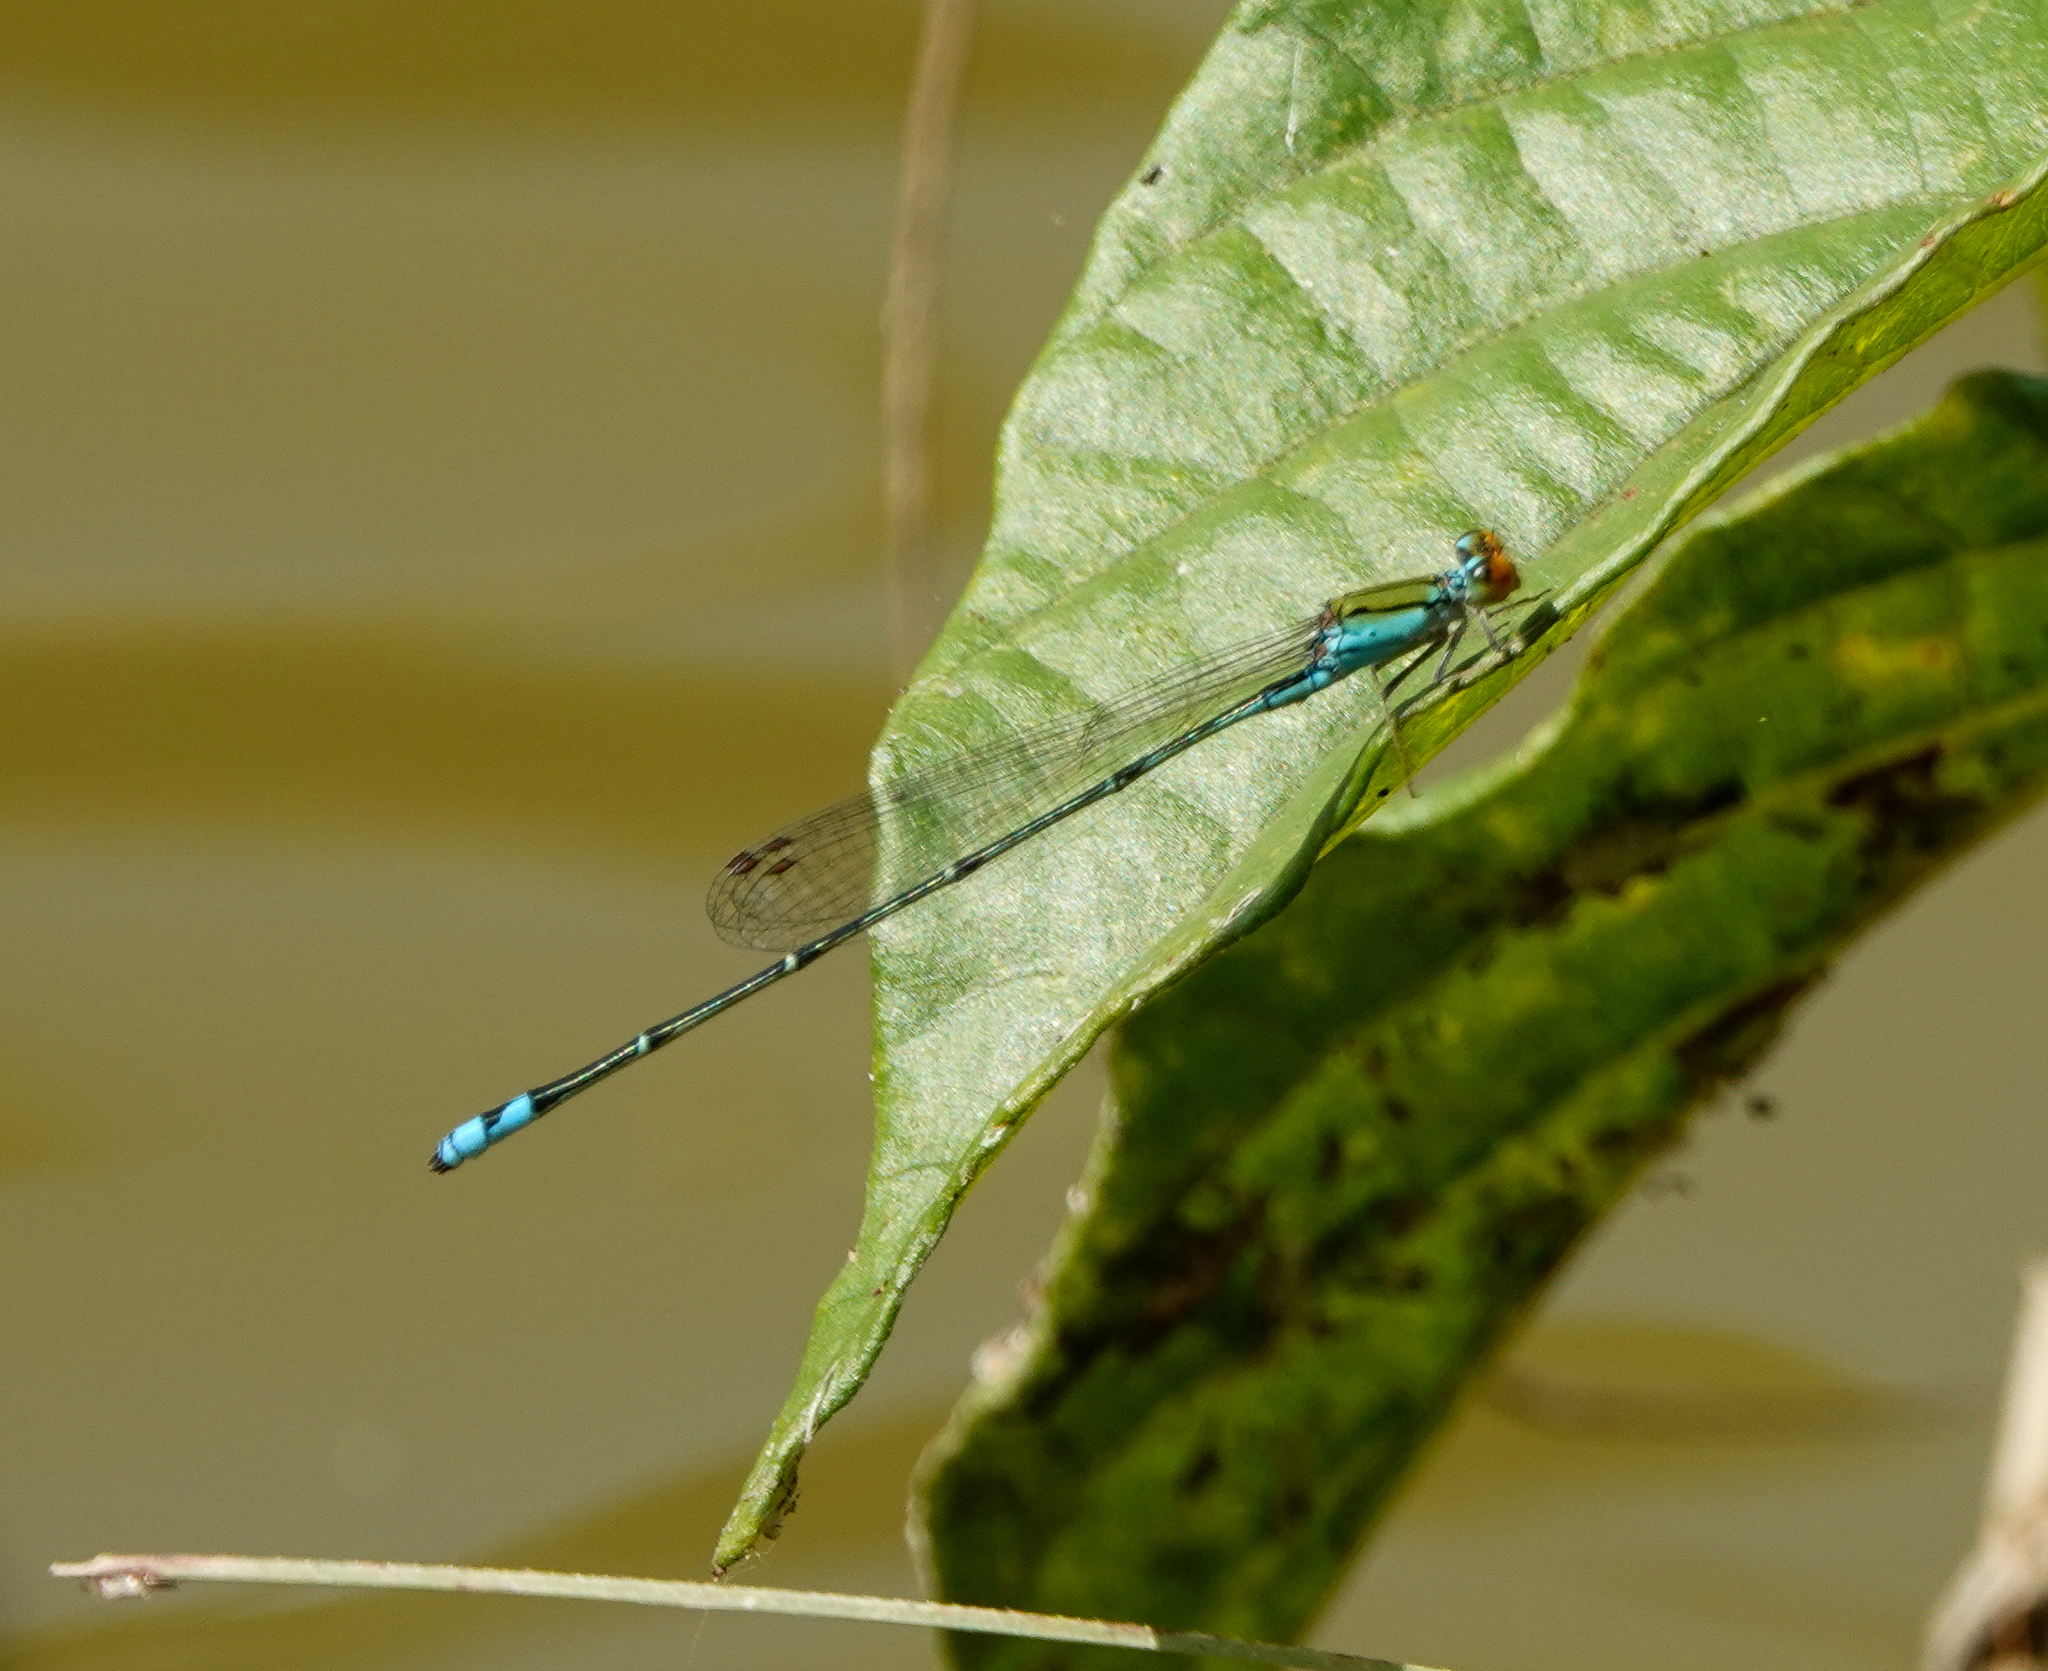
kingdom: Animalia
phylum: Arthropoda
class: Insecta
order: Odonata
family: Coenagrionidae
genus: Pseudagrion
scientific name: Pseudagrion rubriceps
